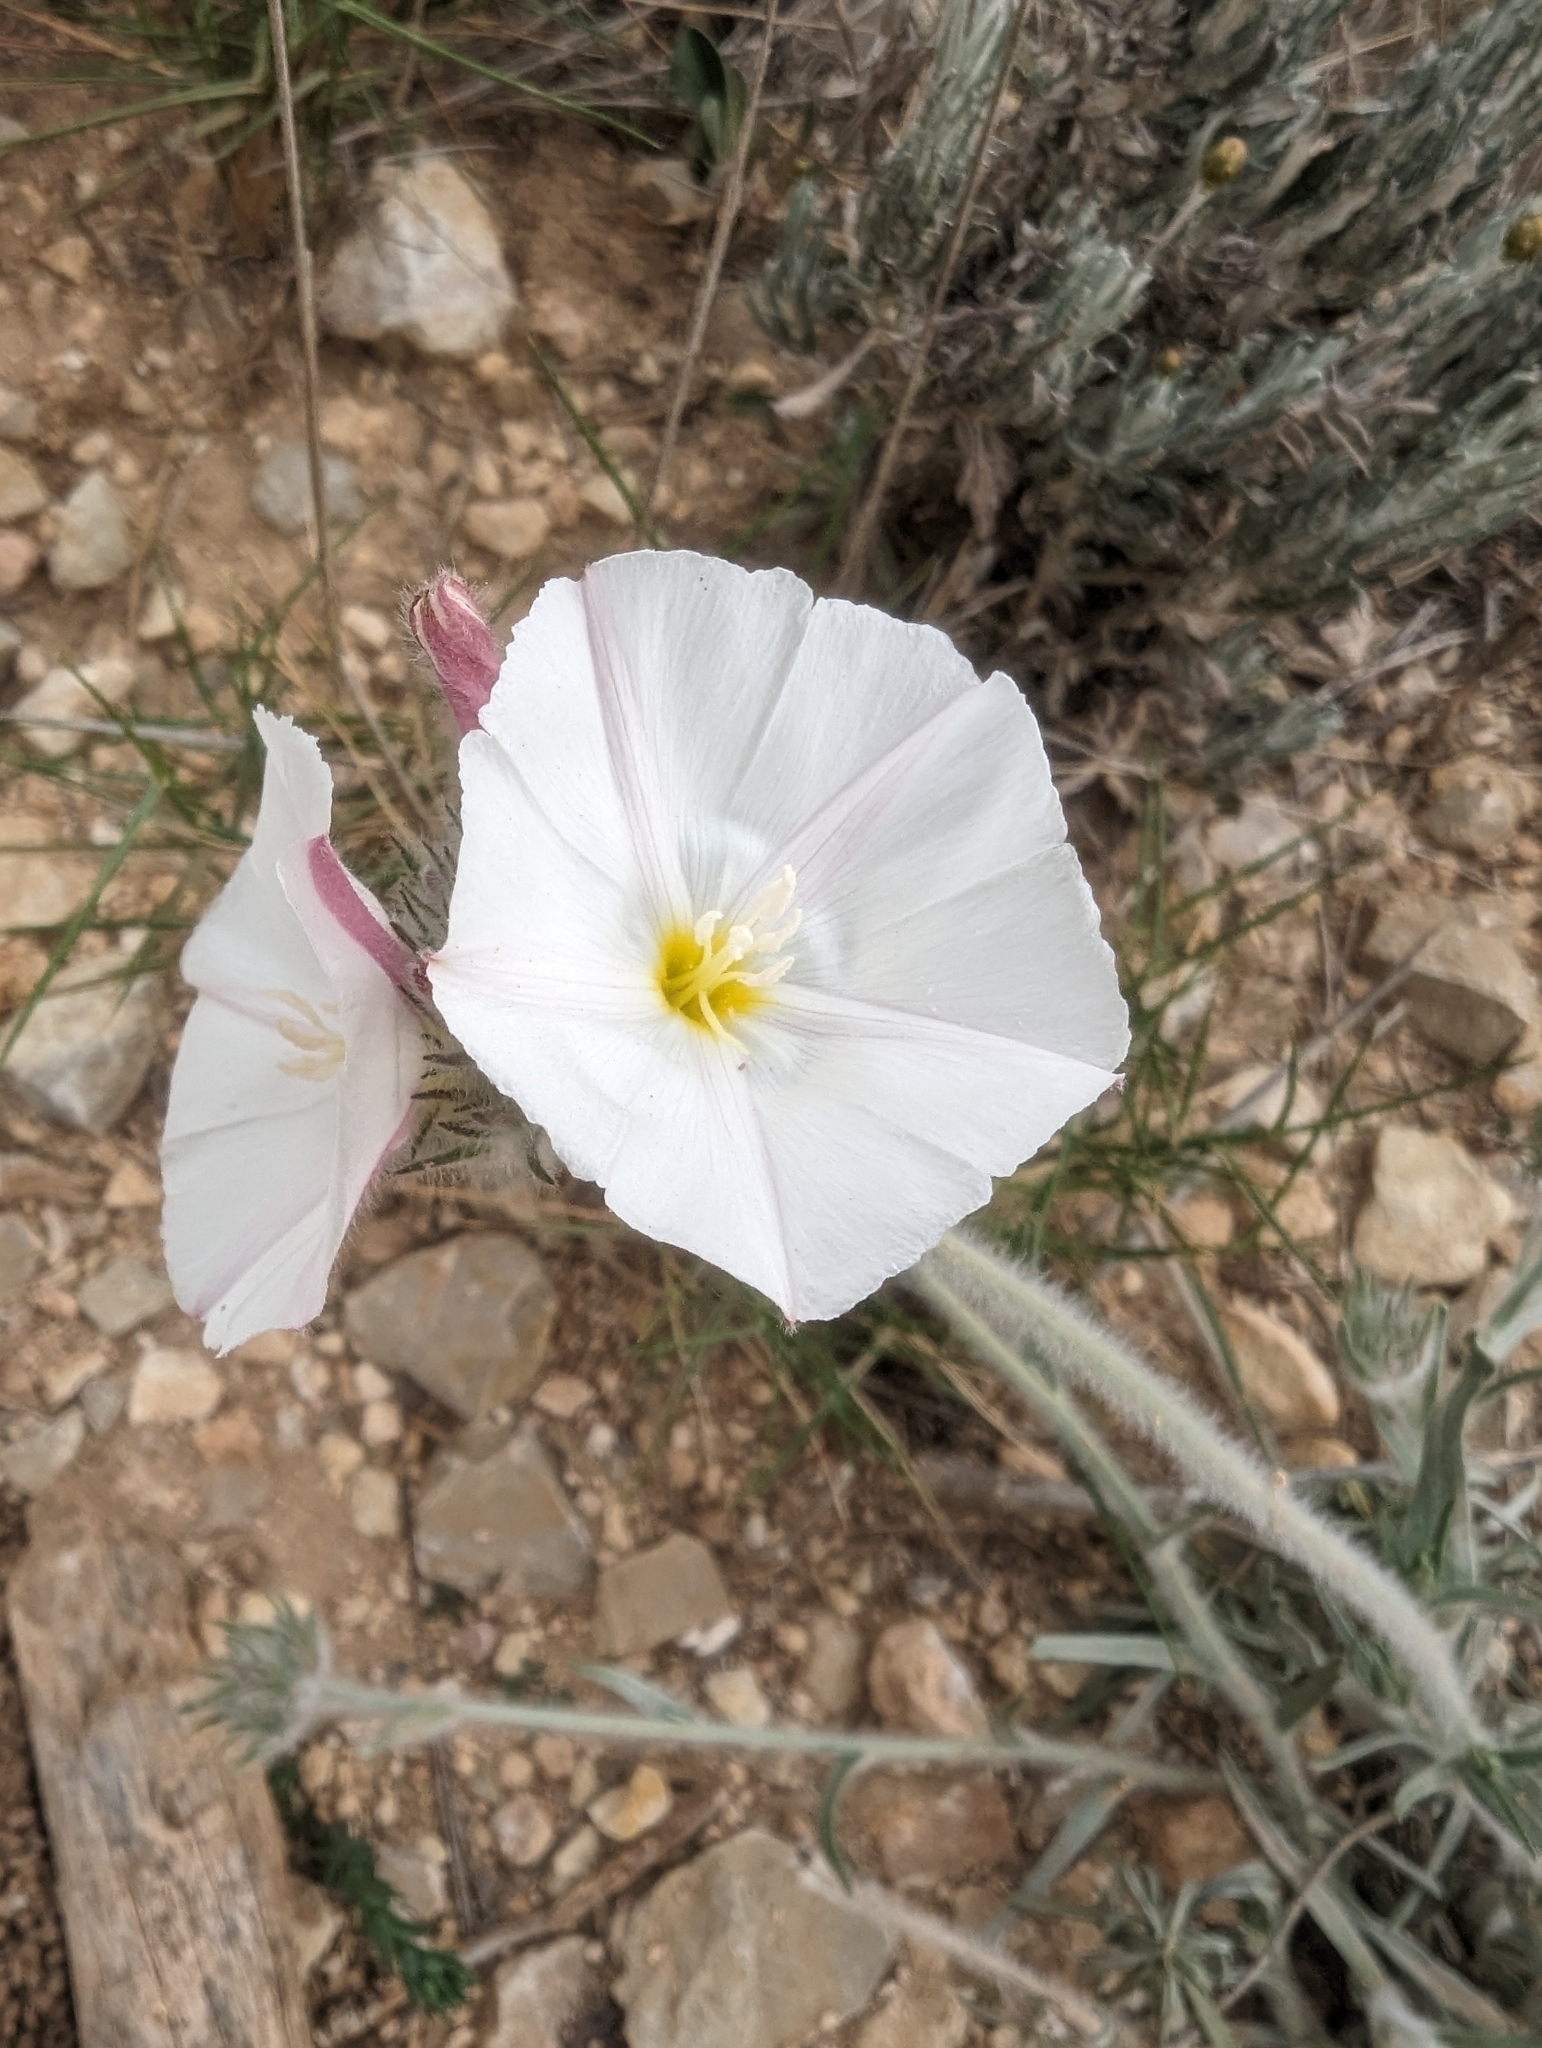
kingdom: Plantae
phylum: Tracheophyta
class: Magnoliopsida
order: Solanales
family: Convolvulaceae
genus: Convolvulus
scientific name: Convolvulus lanuginosus
